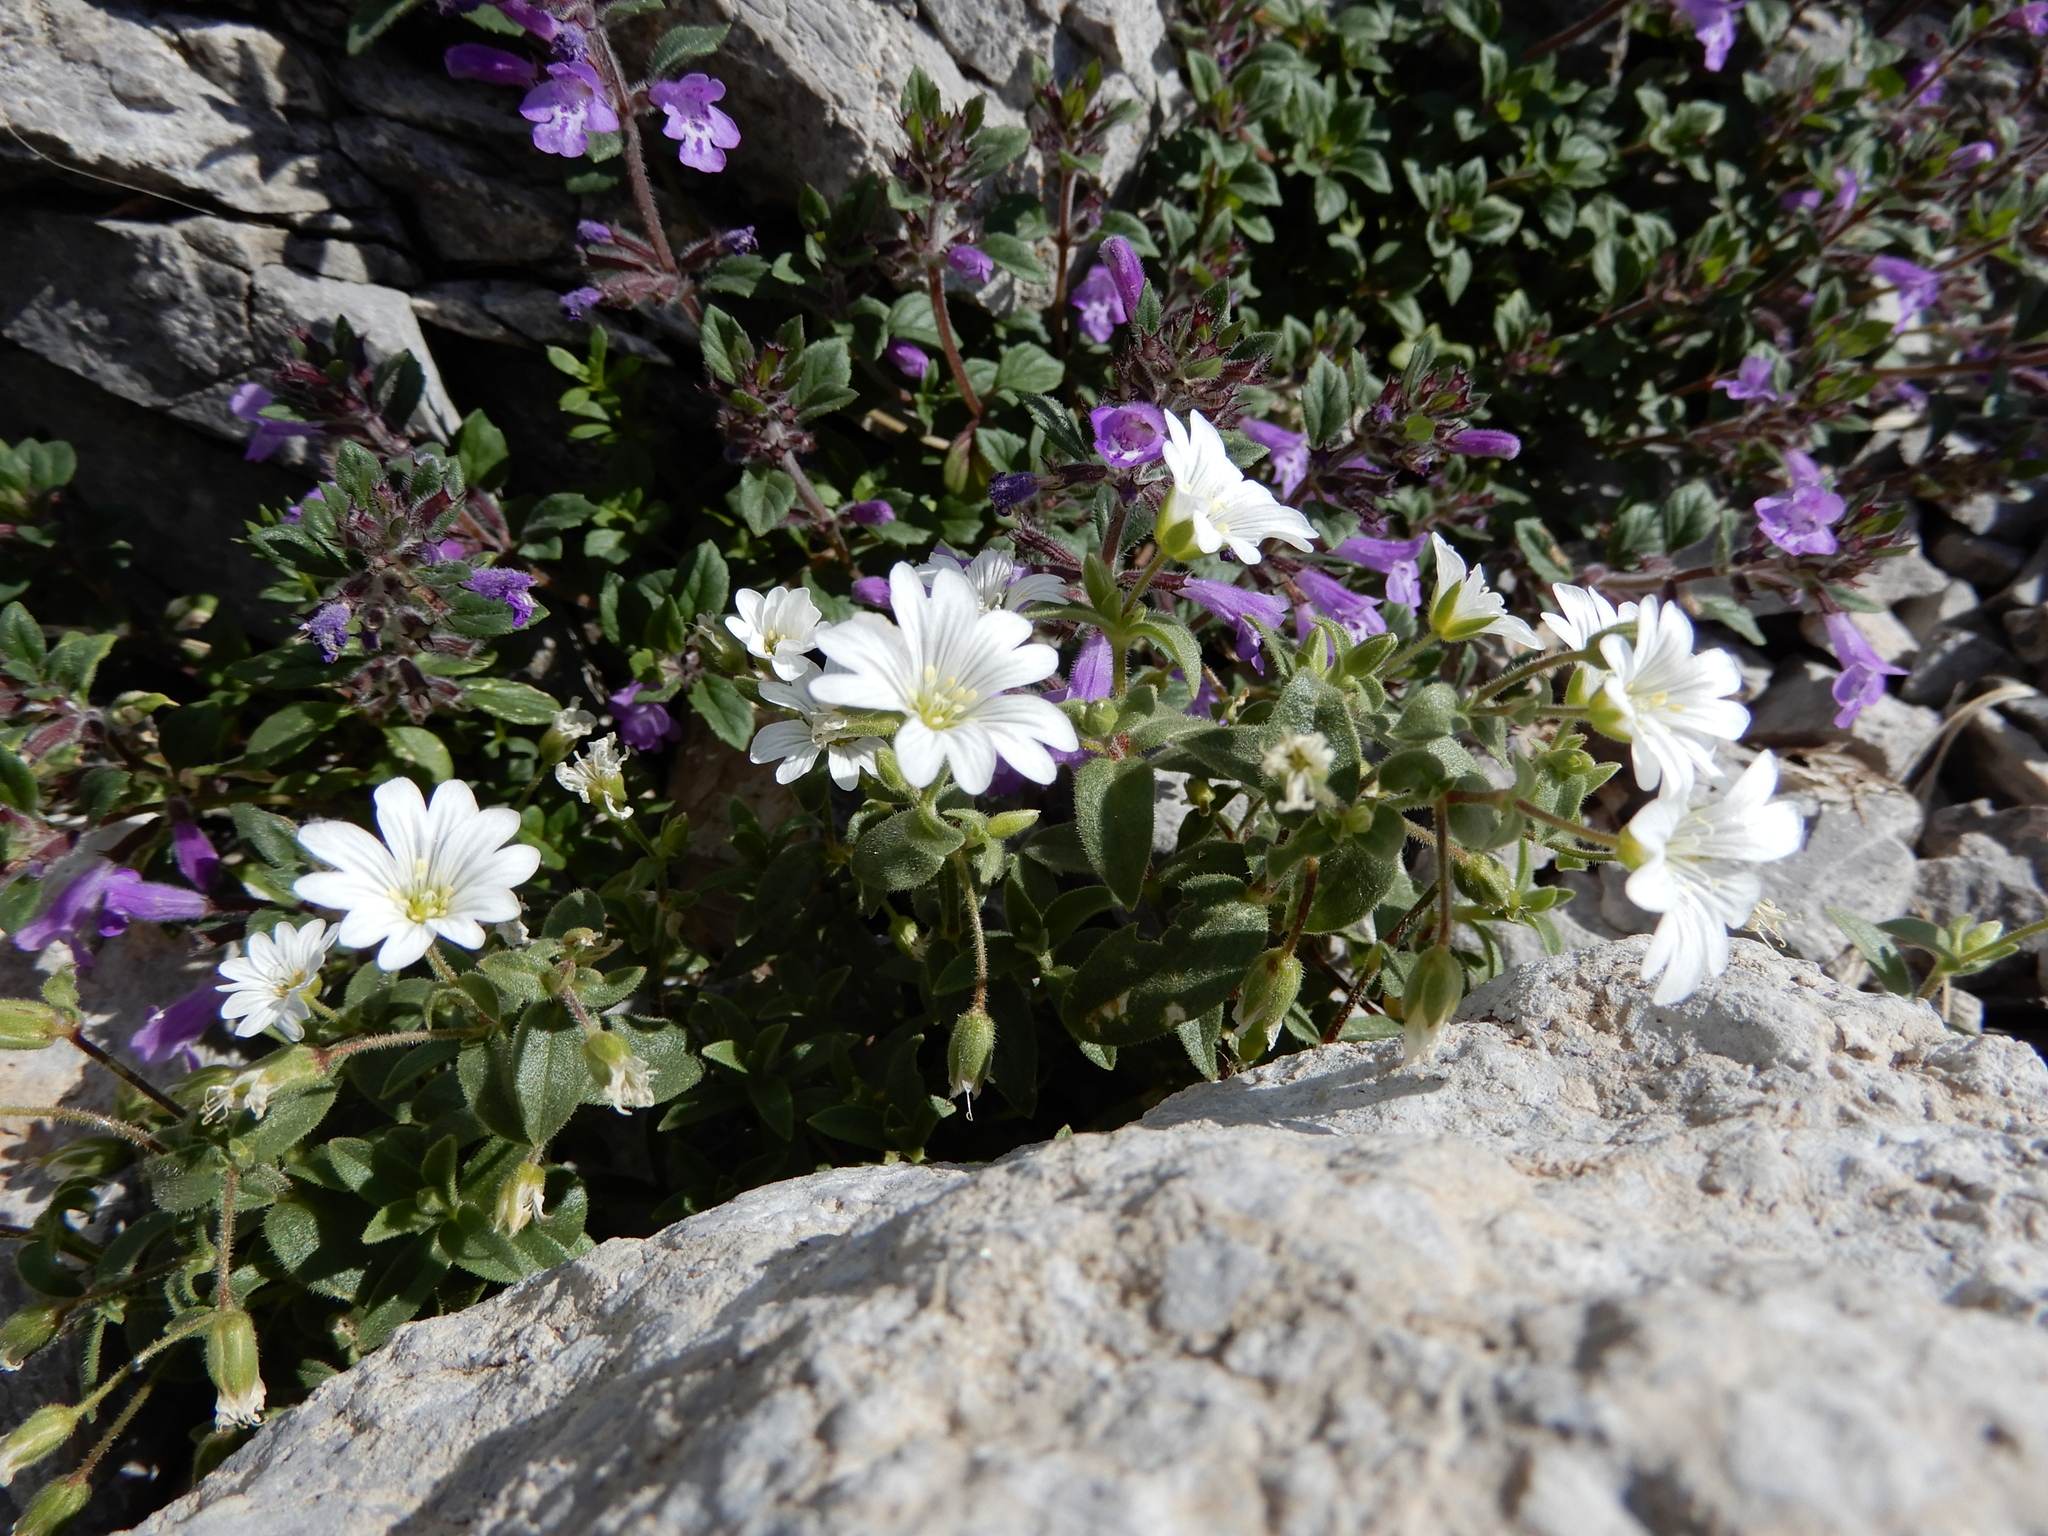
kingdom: Plantae
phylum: Tracheophyta
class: Magnoliopsida
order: Caryophyllales
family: Caryophyllaceae
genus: Cerastium
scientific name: Cerastium latifolium
